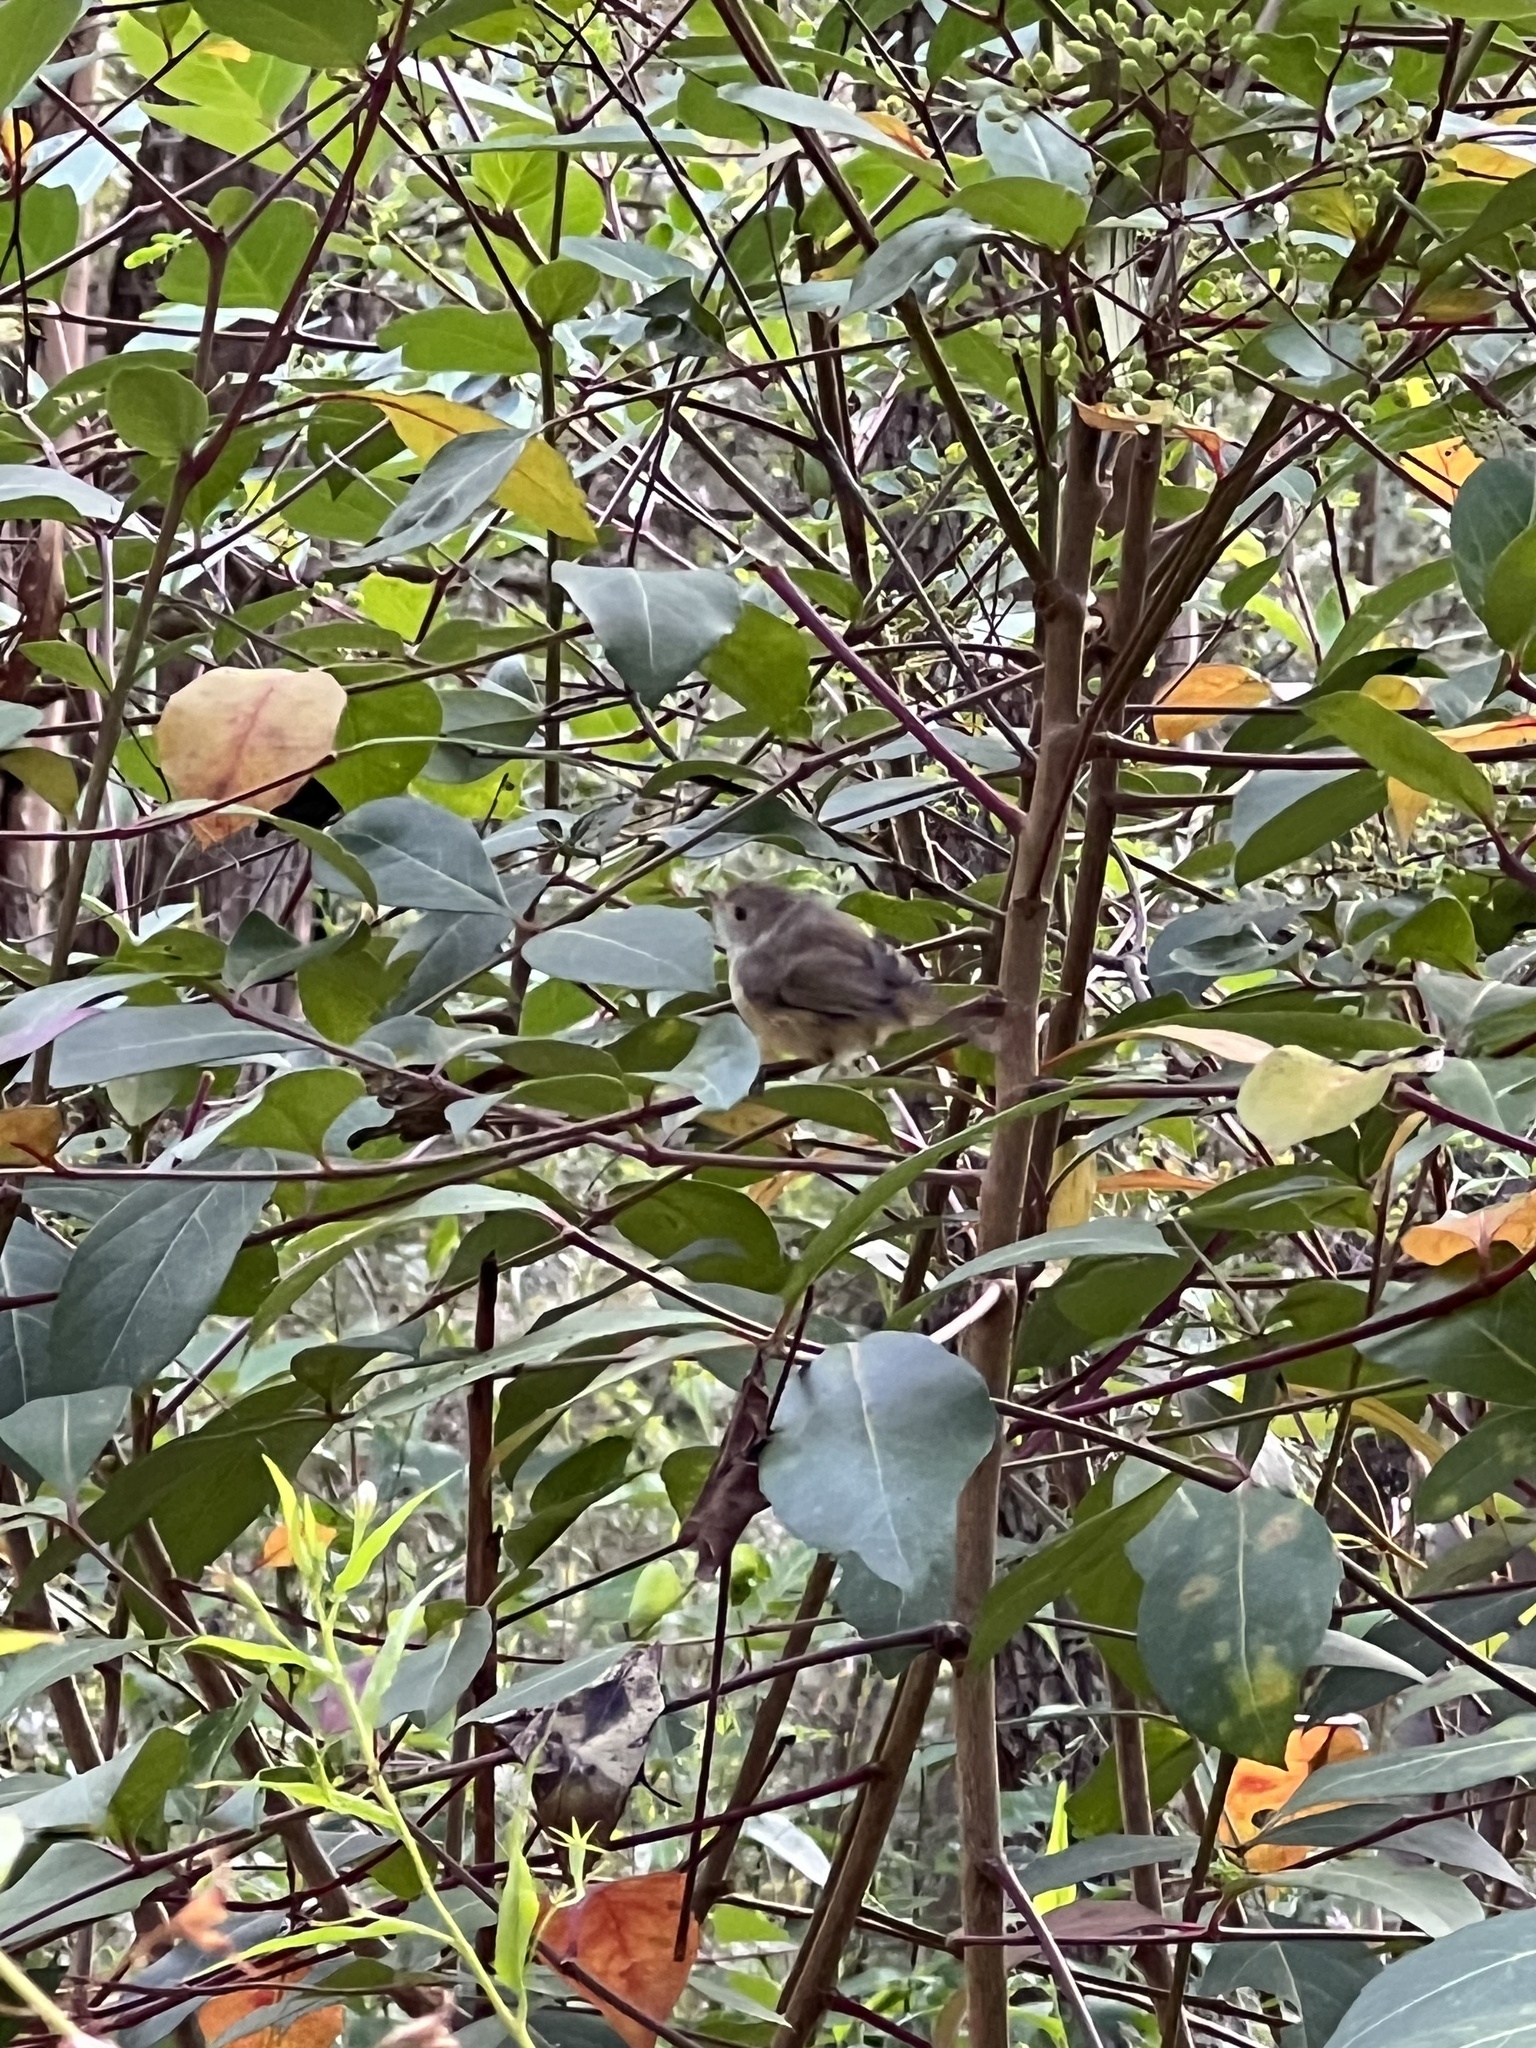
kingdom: Animalia
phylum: Chordata
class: Aves
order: Passeriformes
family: Acanthizidae
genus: Acanthiza
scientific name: Acanthiza pusilla
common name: Brown thornbill
